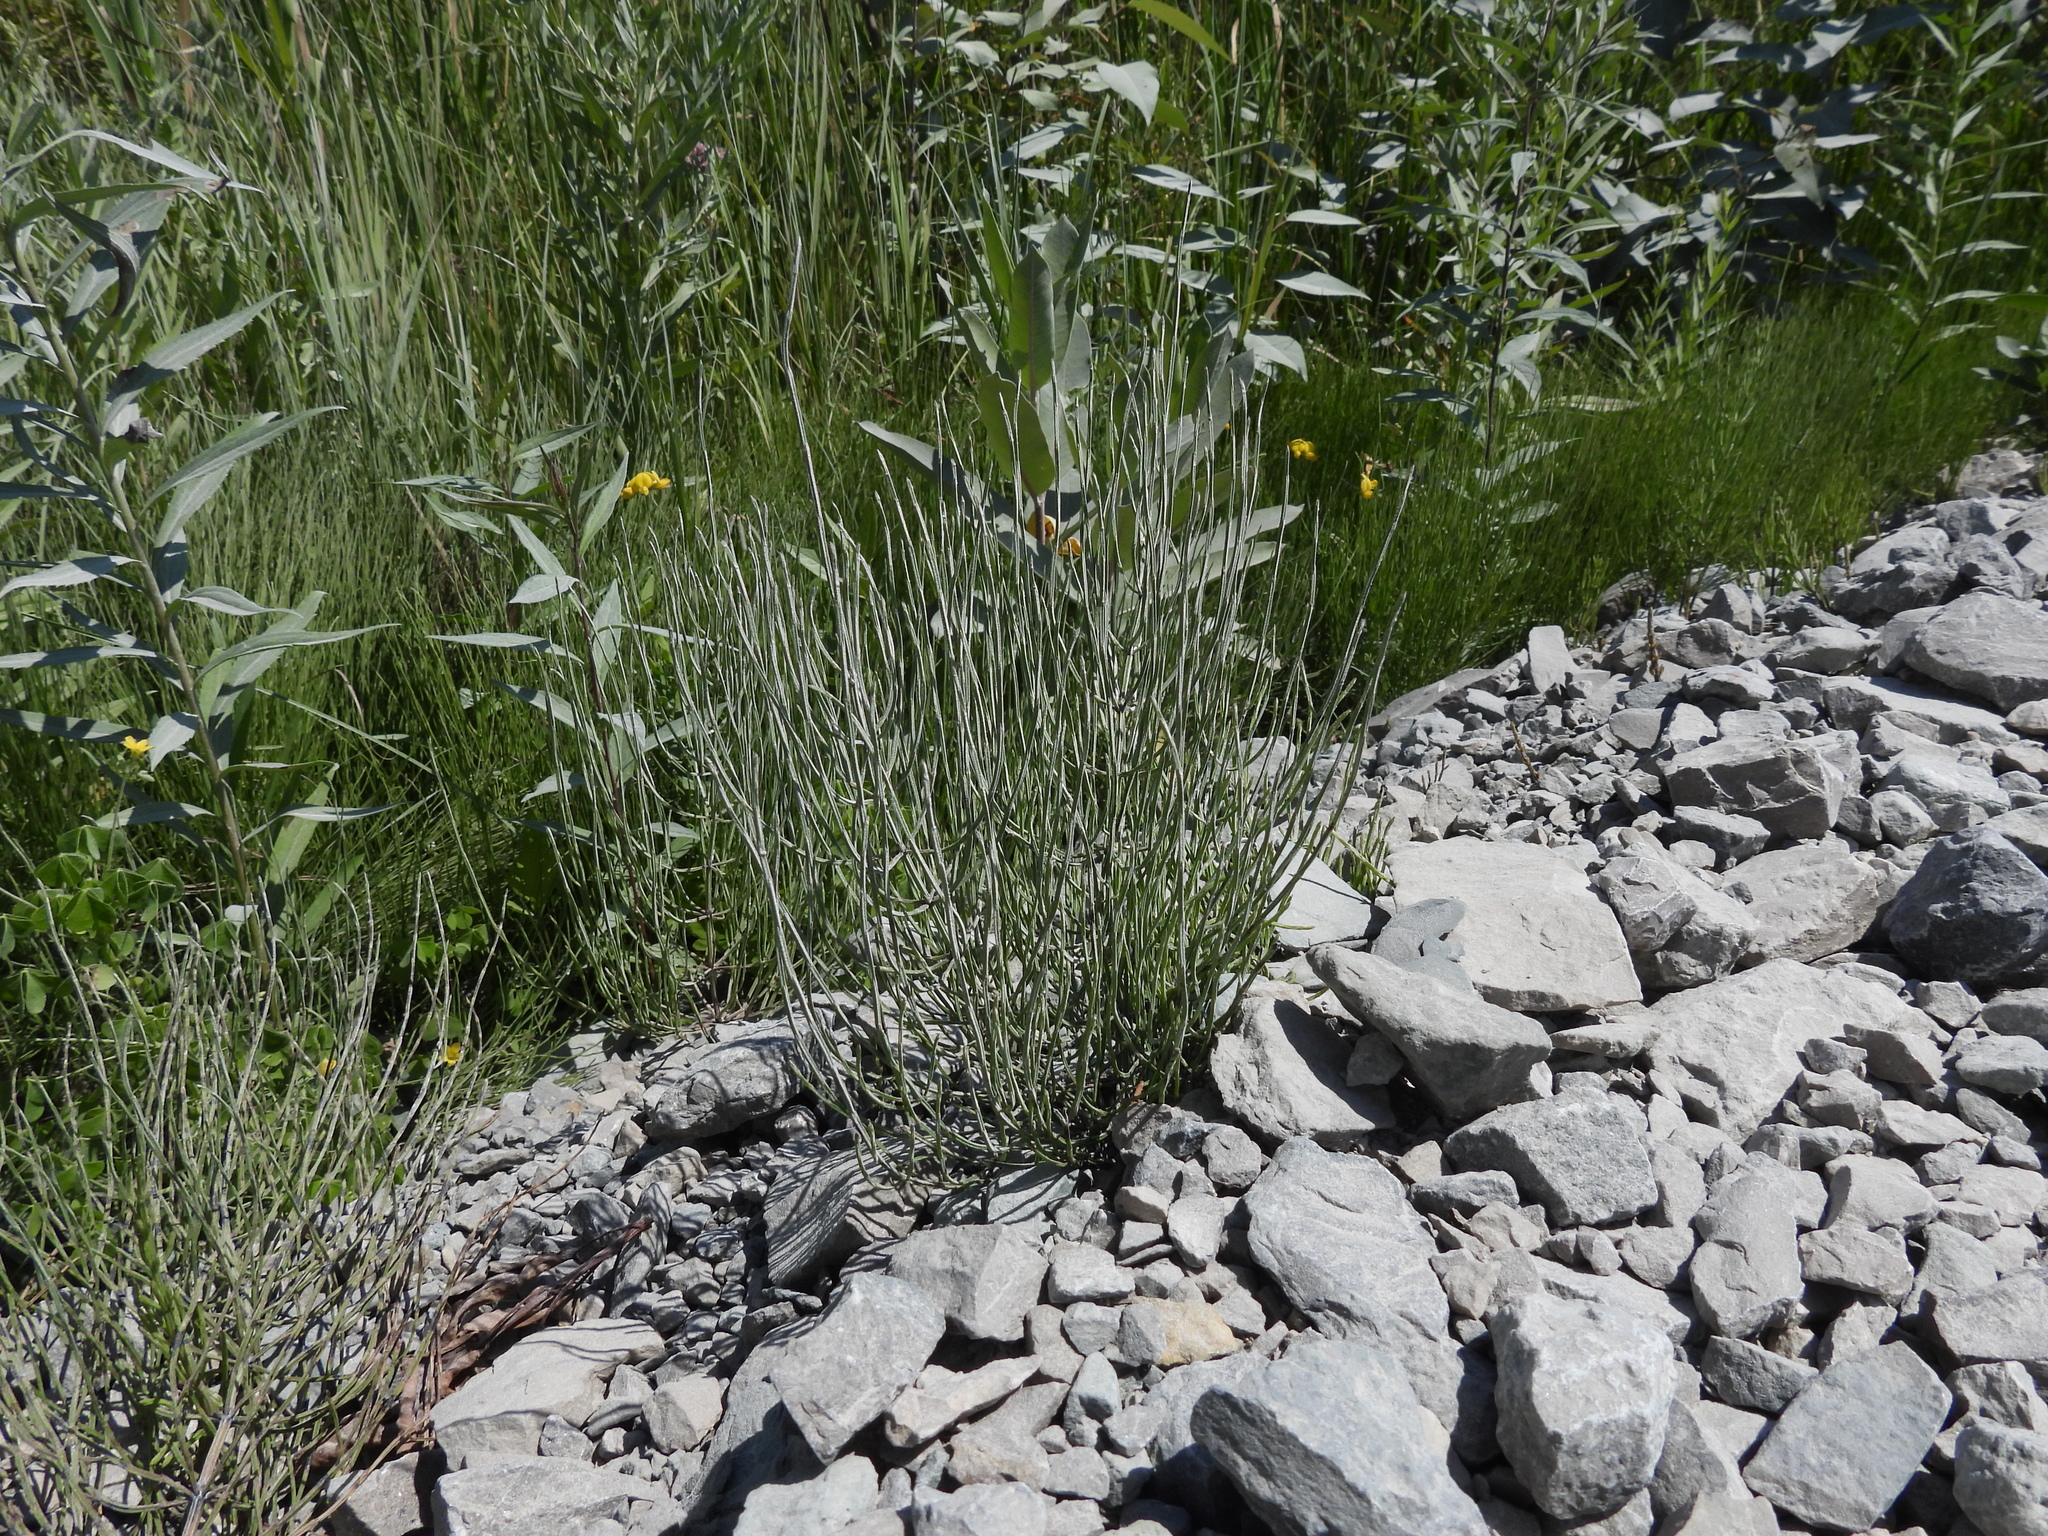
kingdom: Plantae
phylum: Tracheophyta
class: Polypodiopsida
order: Equisetales
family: Equisetaceae
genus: Equisetum
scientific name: Equisetum arvense
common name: Field horsetail
